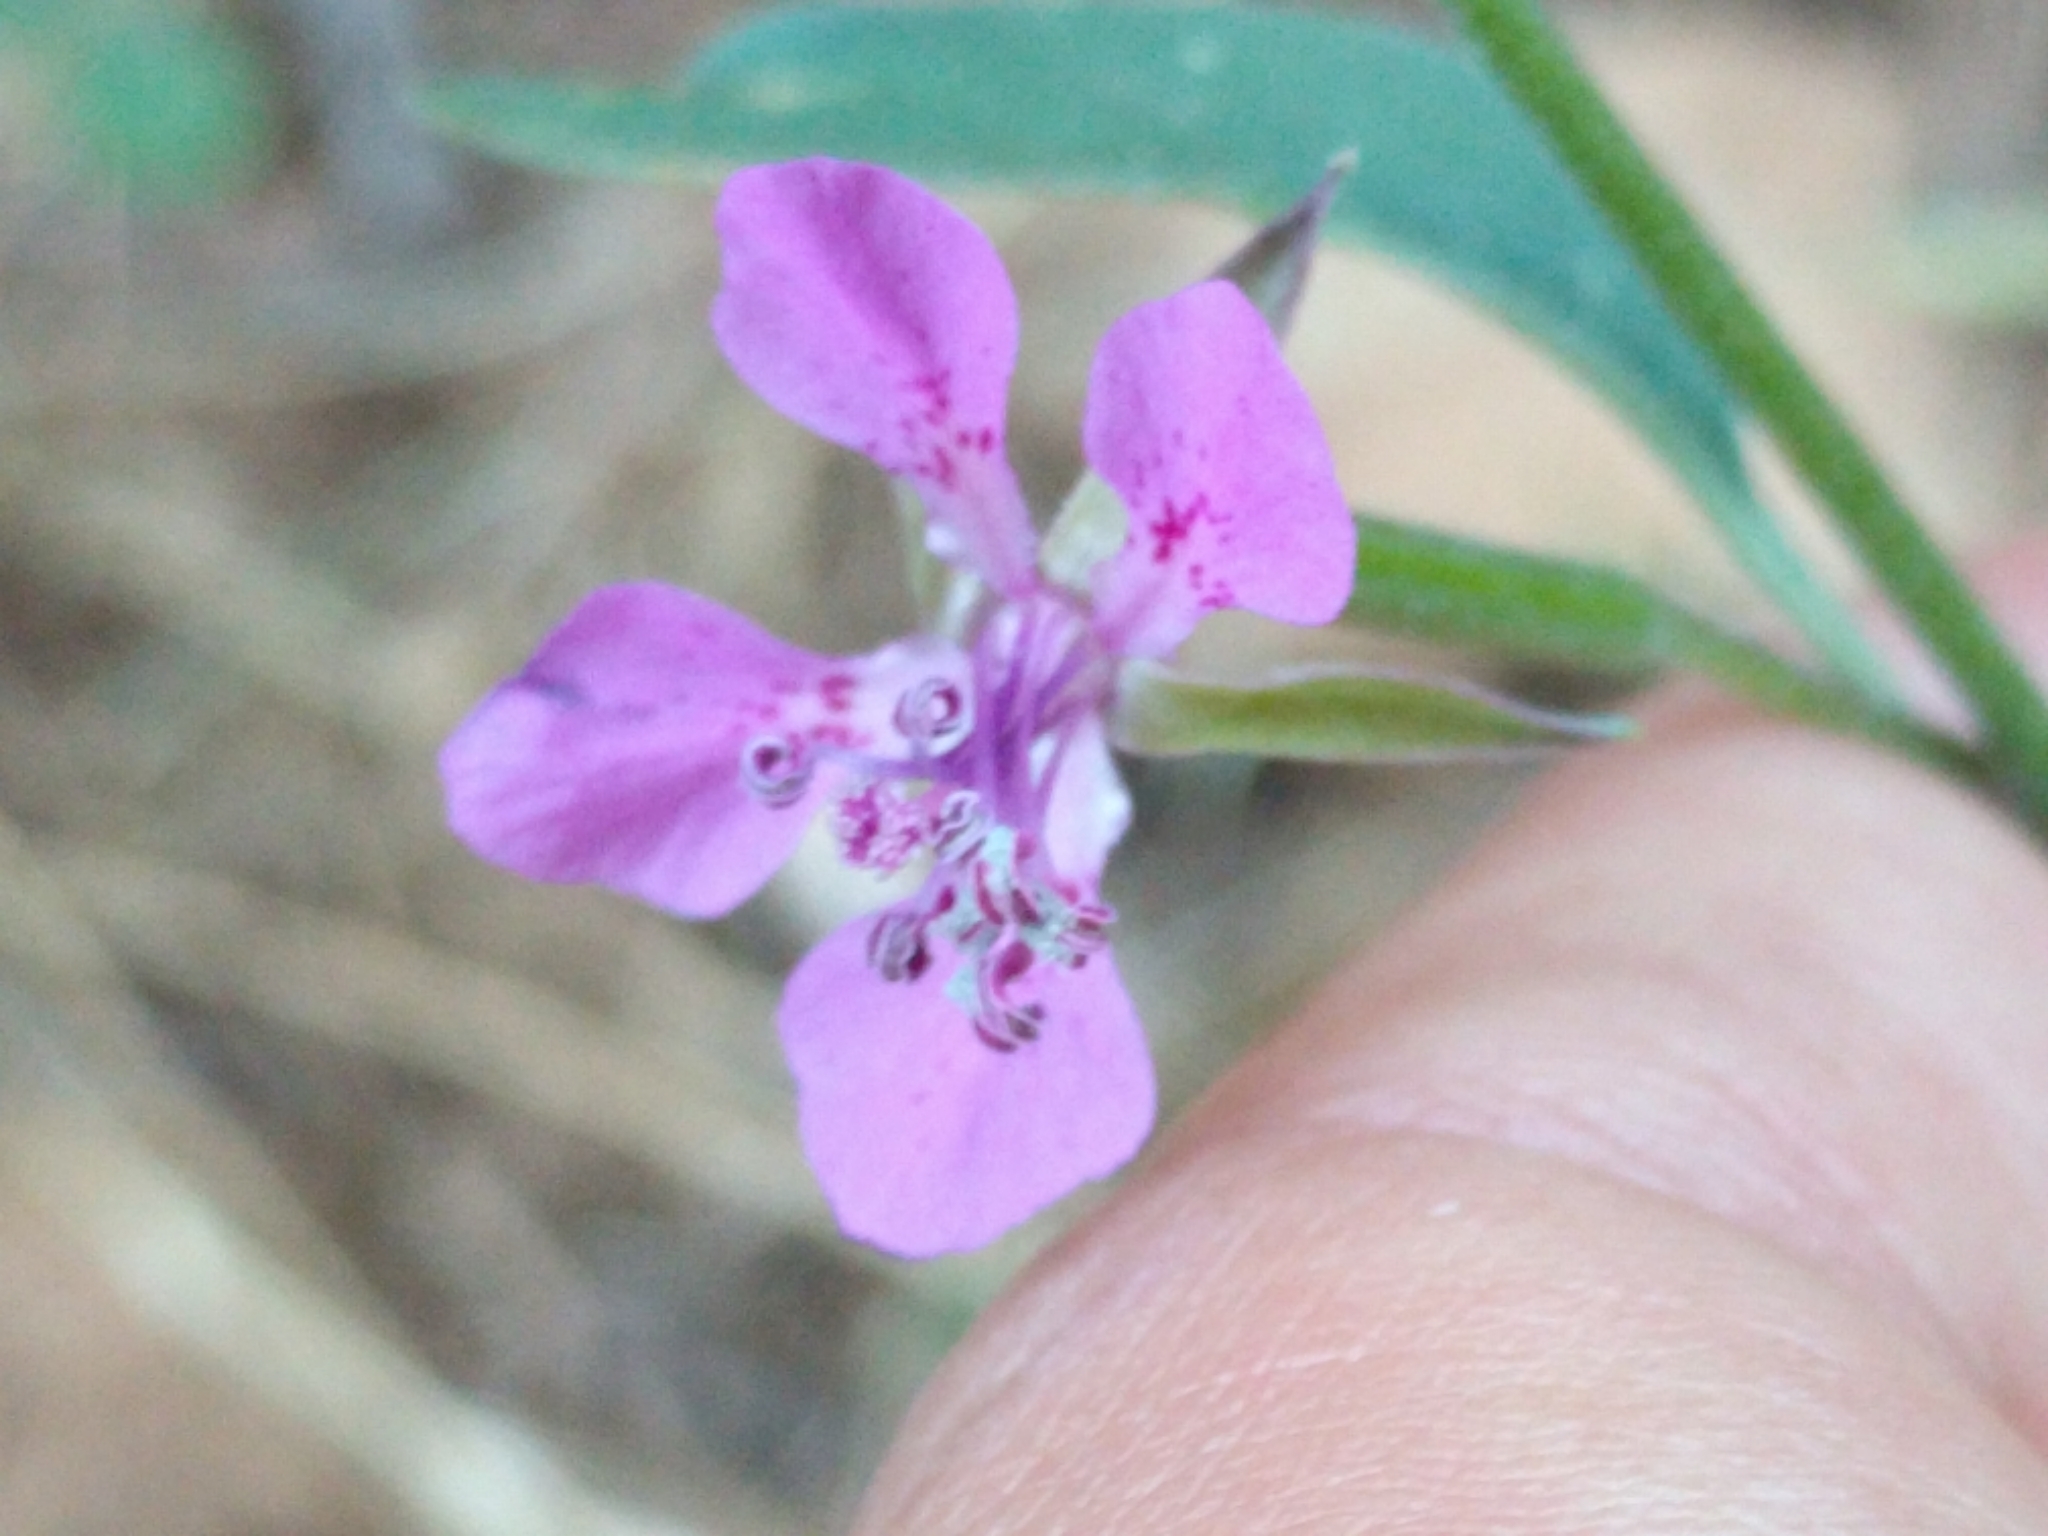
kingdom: Plantae
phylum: Tracheophyta
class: Magnoliopsida
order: Myrtales
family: Onagraceae
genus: Clarkia
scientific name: Clarkia rhomboidea
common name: Broadleaf clarkia
